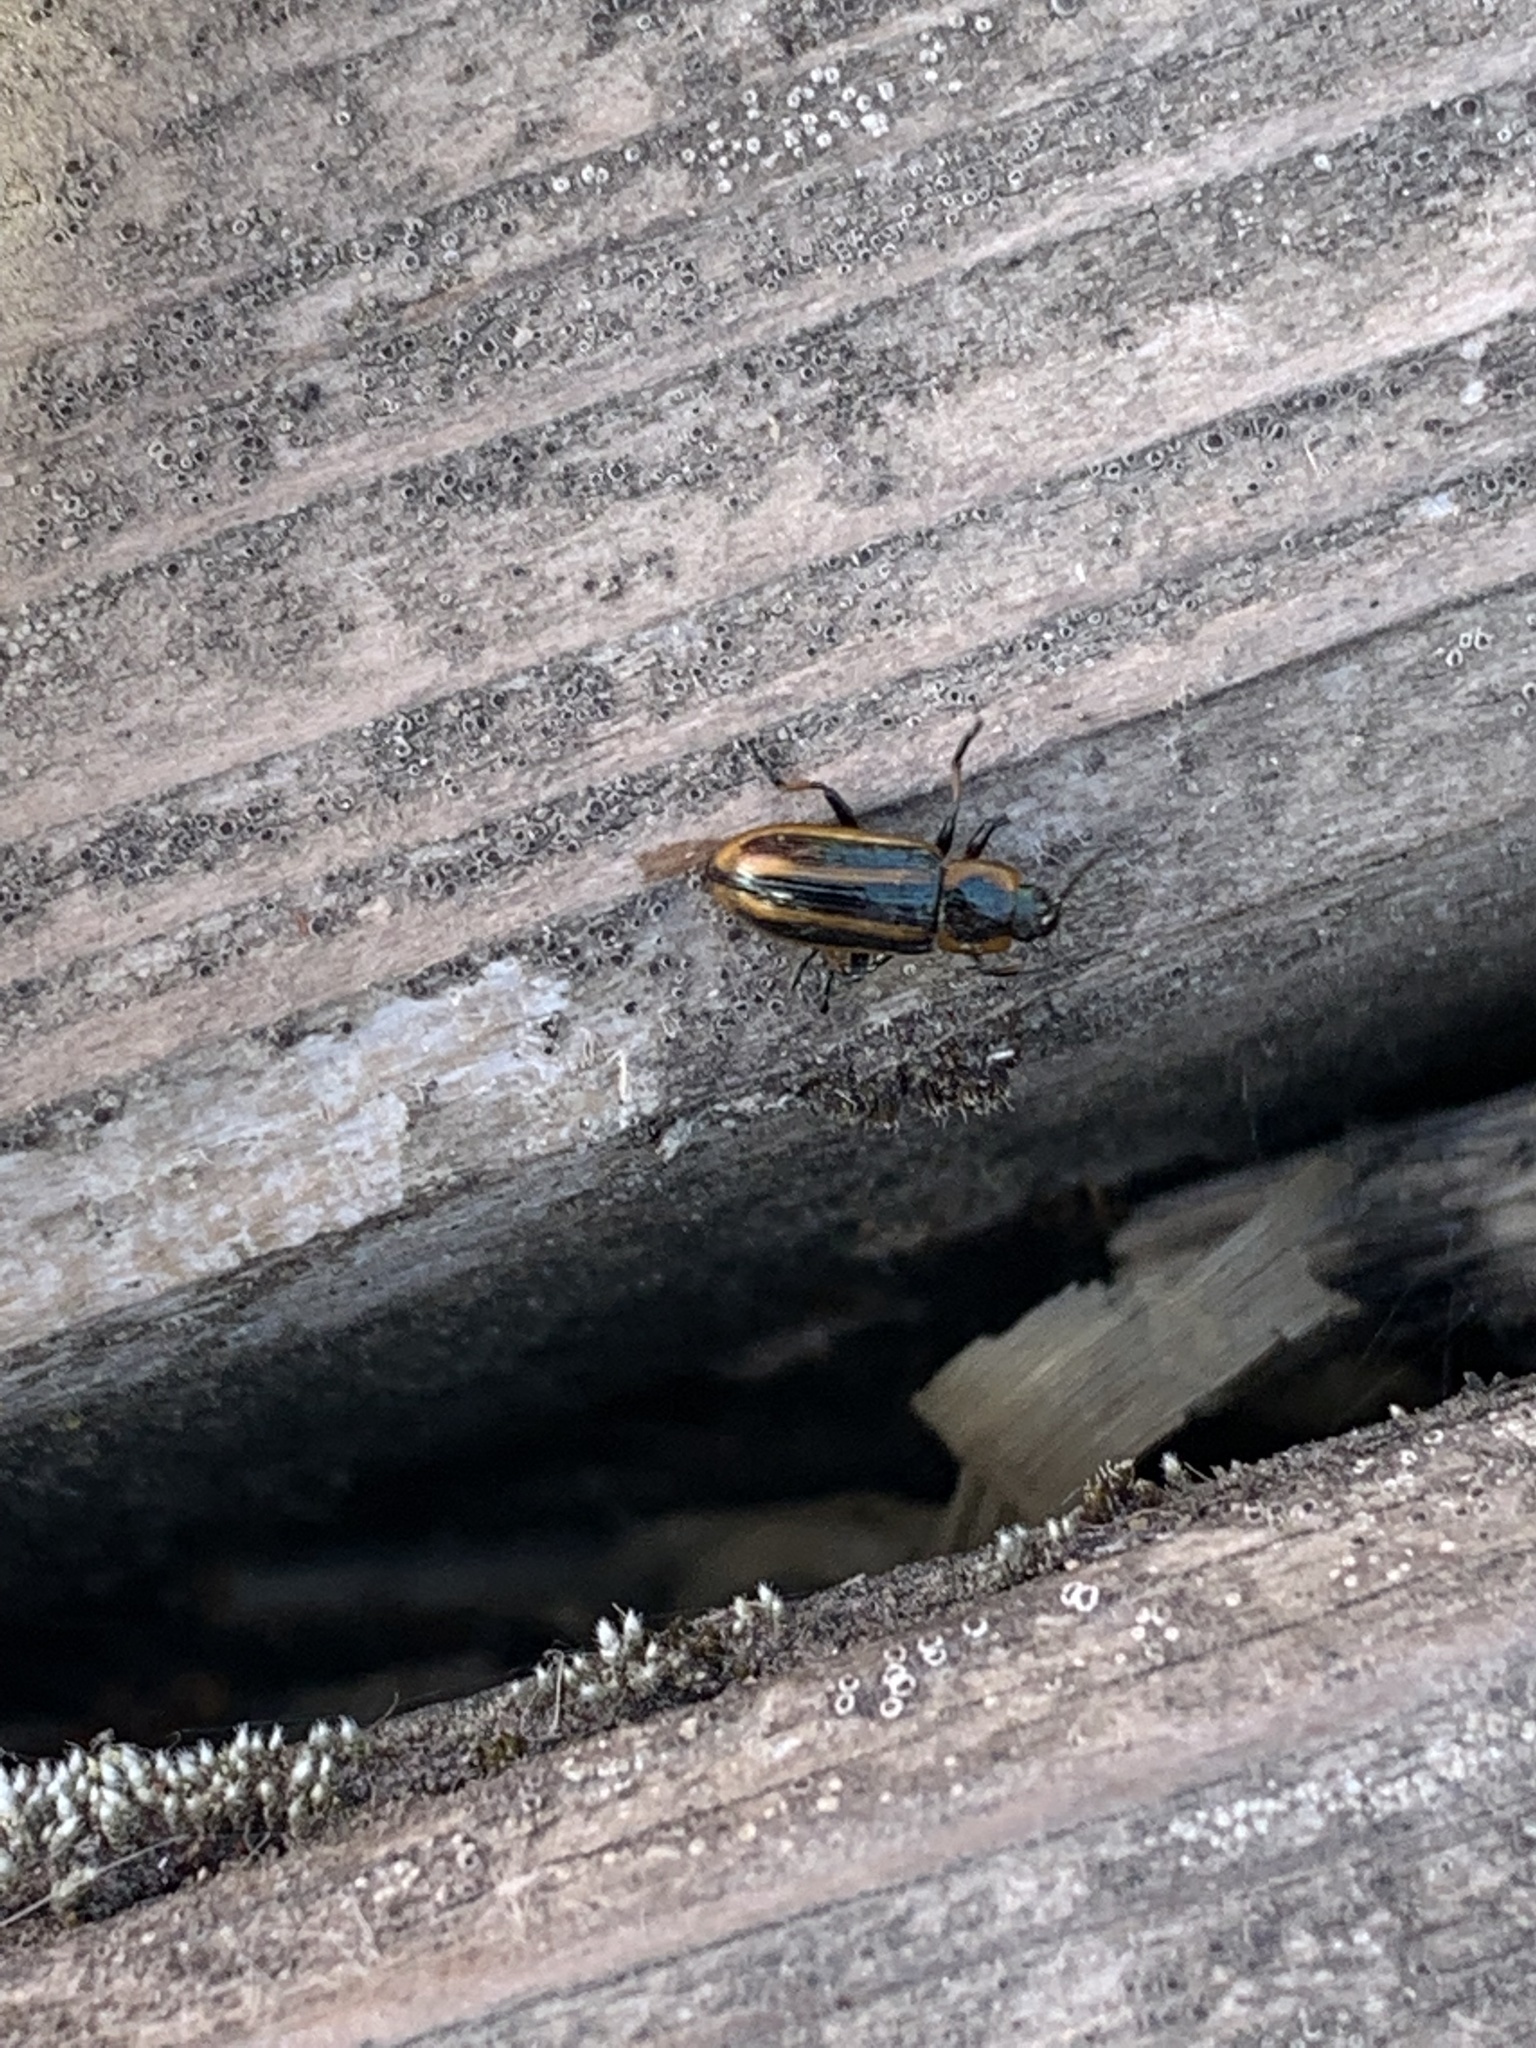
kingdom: Animalia
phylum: Arthropoda
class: Insecta
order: Coleoptera
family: Chrysomelidae
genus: Prasocuris
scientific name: Prasocuris phellandrii
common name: Leaf beetle
